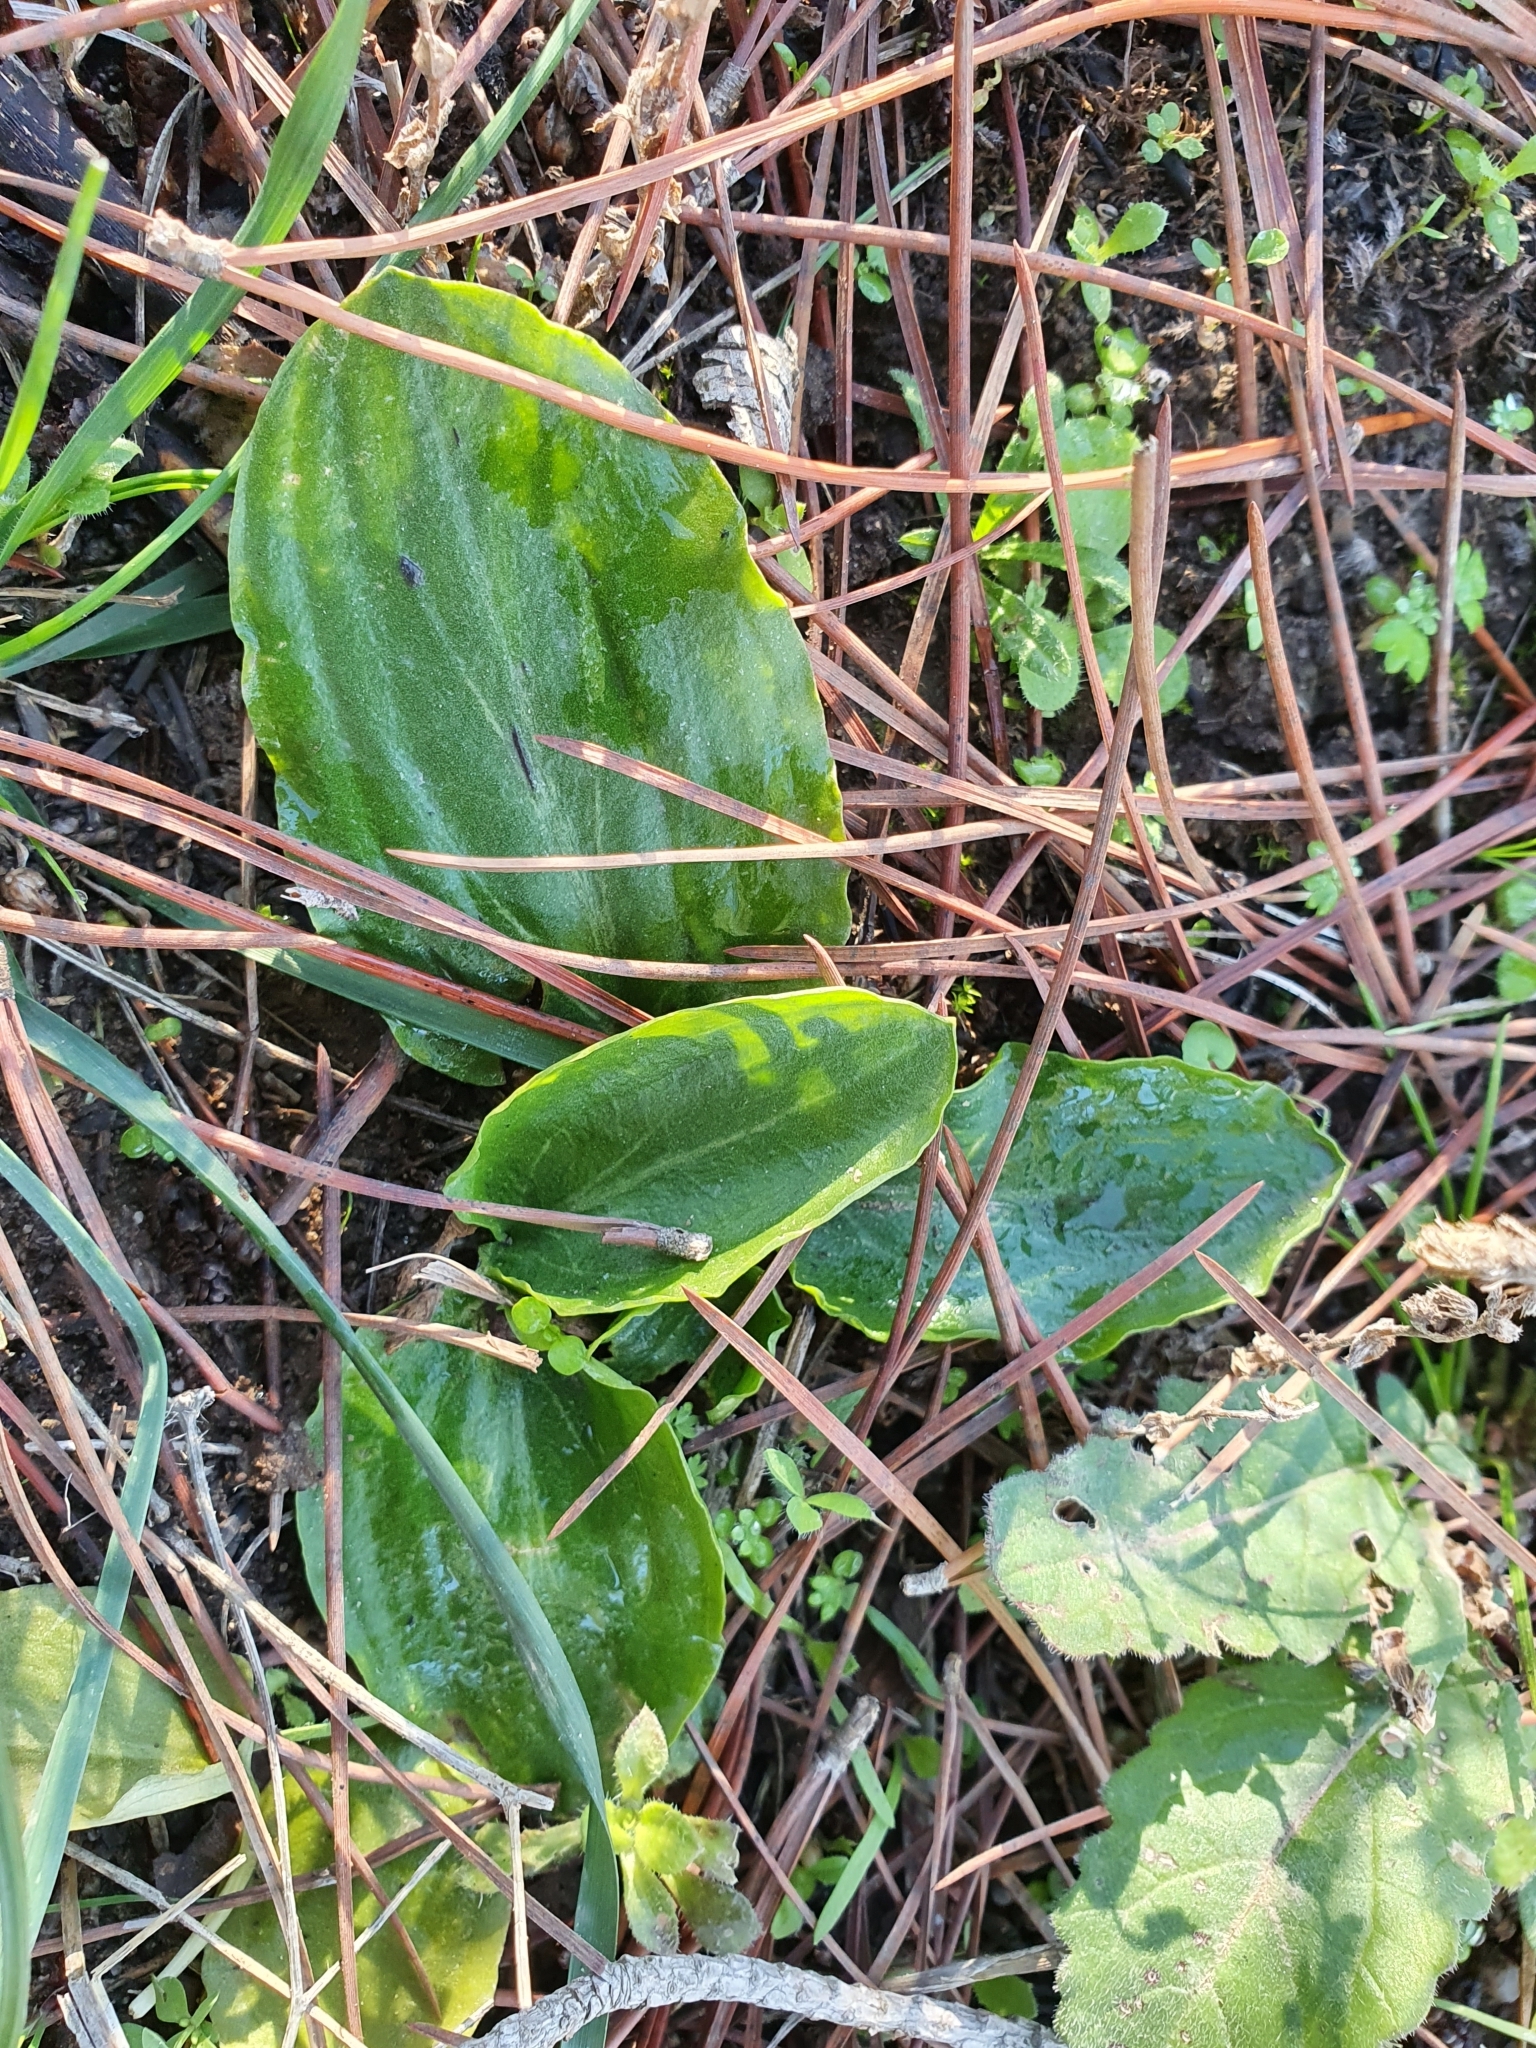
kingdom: Plantae
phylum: Tracheophyta
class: Liliopsida
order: Alismatales
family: Araceae
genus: Ambrosina
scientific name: Ambrosina bassii
